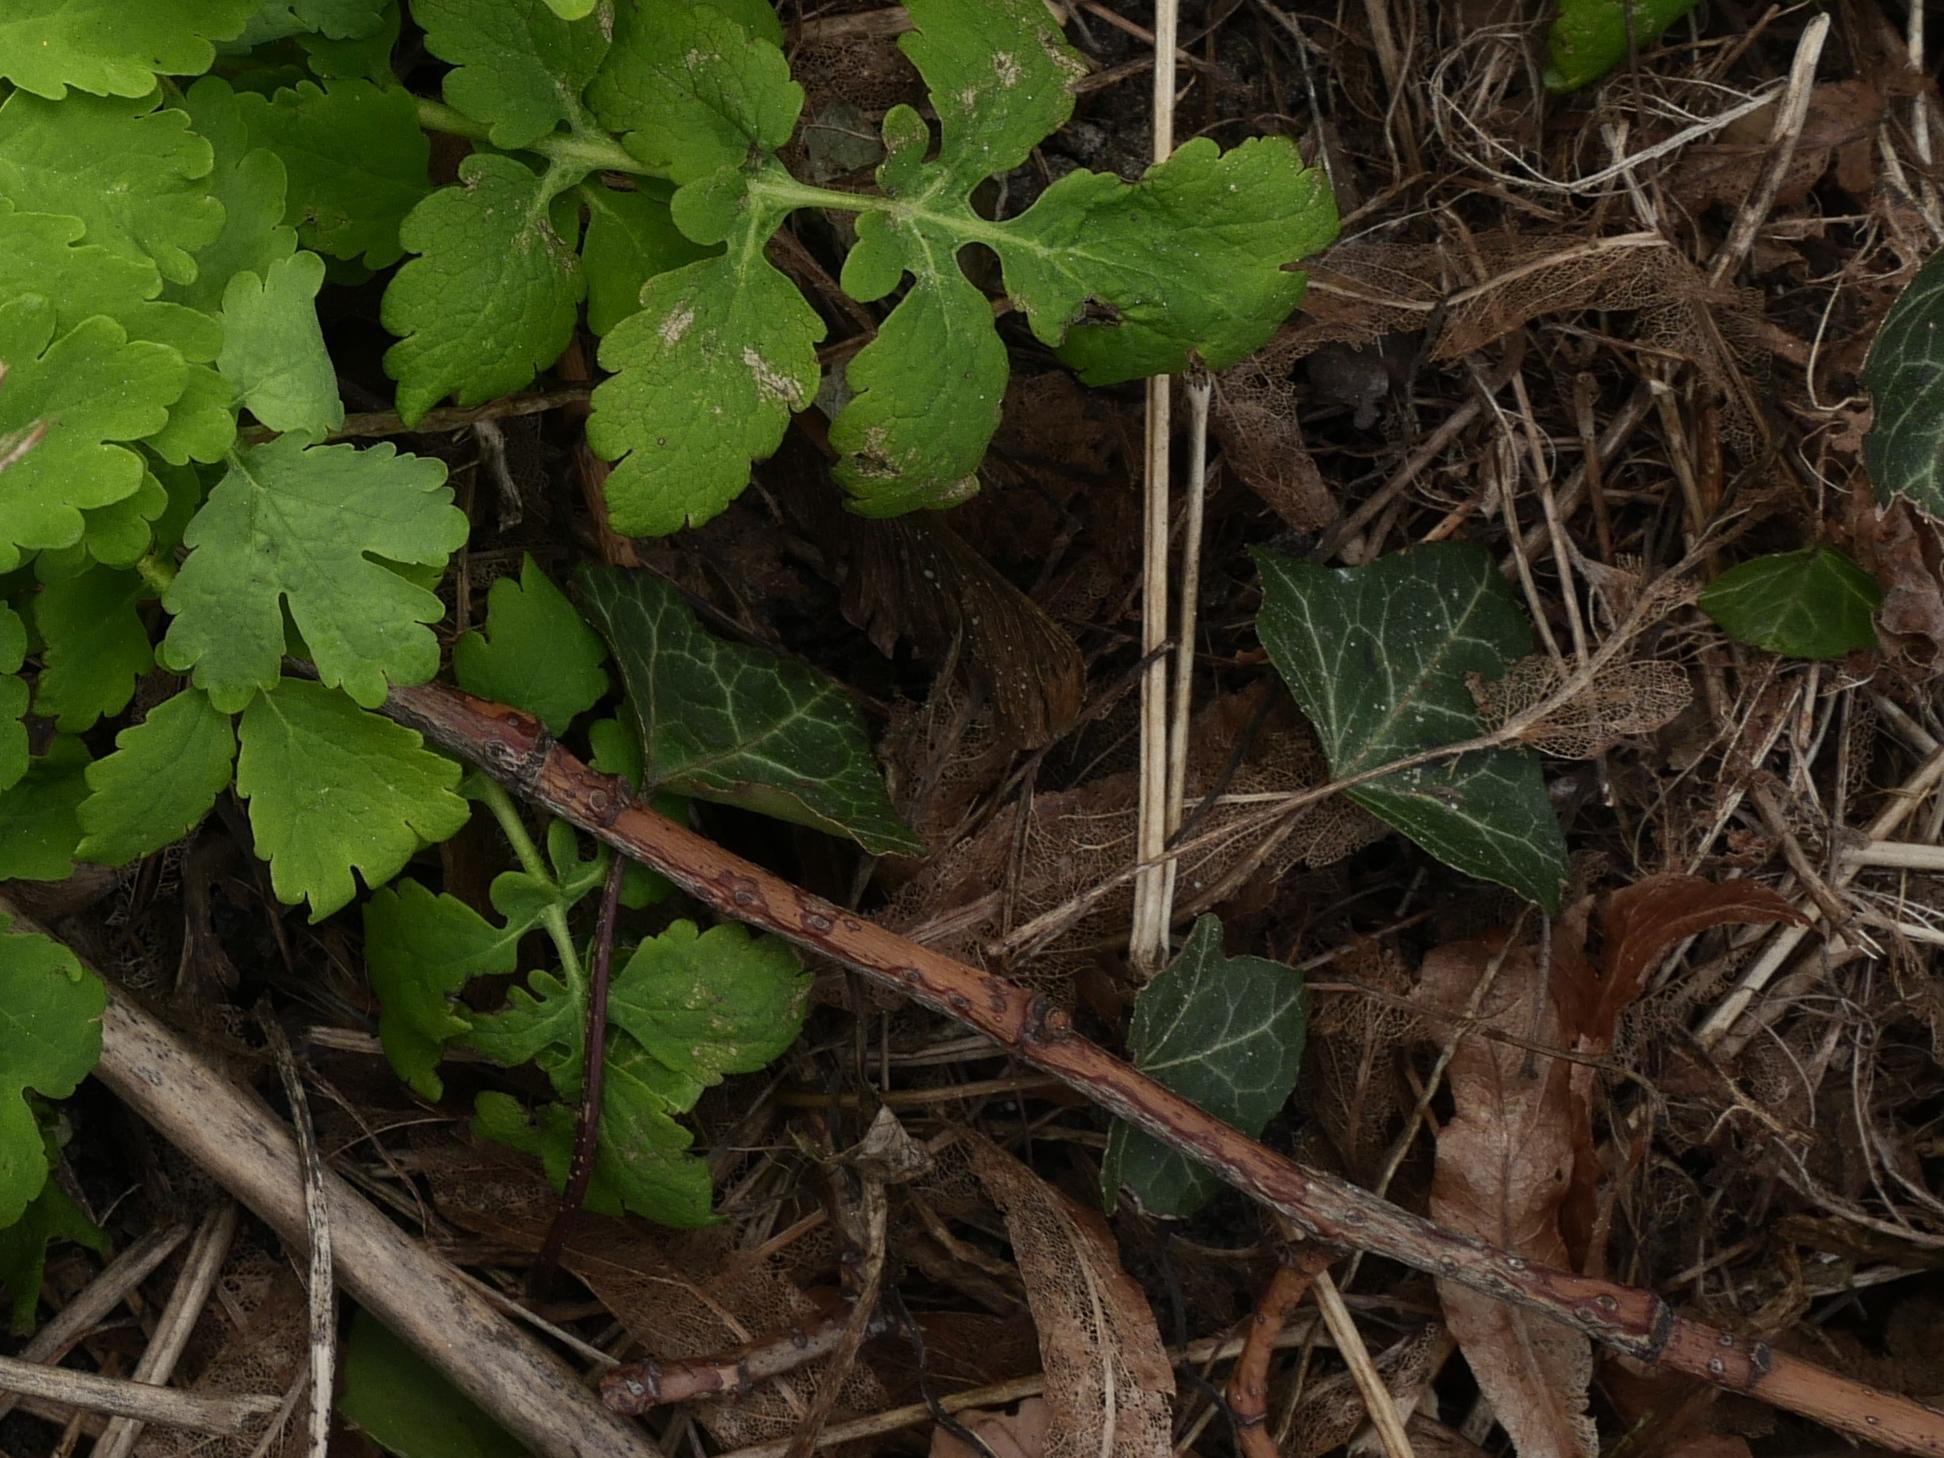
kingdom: Plantae
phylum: Tracheophyta
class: Magnoliopsida
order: Apiales
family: Araliaceae
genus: Hedera
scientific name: Hedera helix
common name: Ivy
